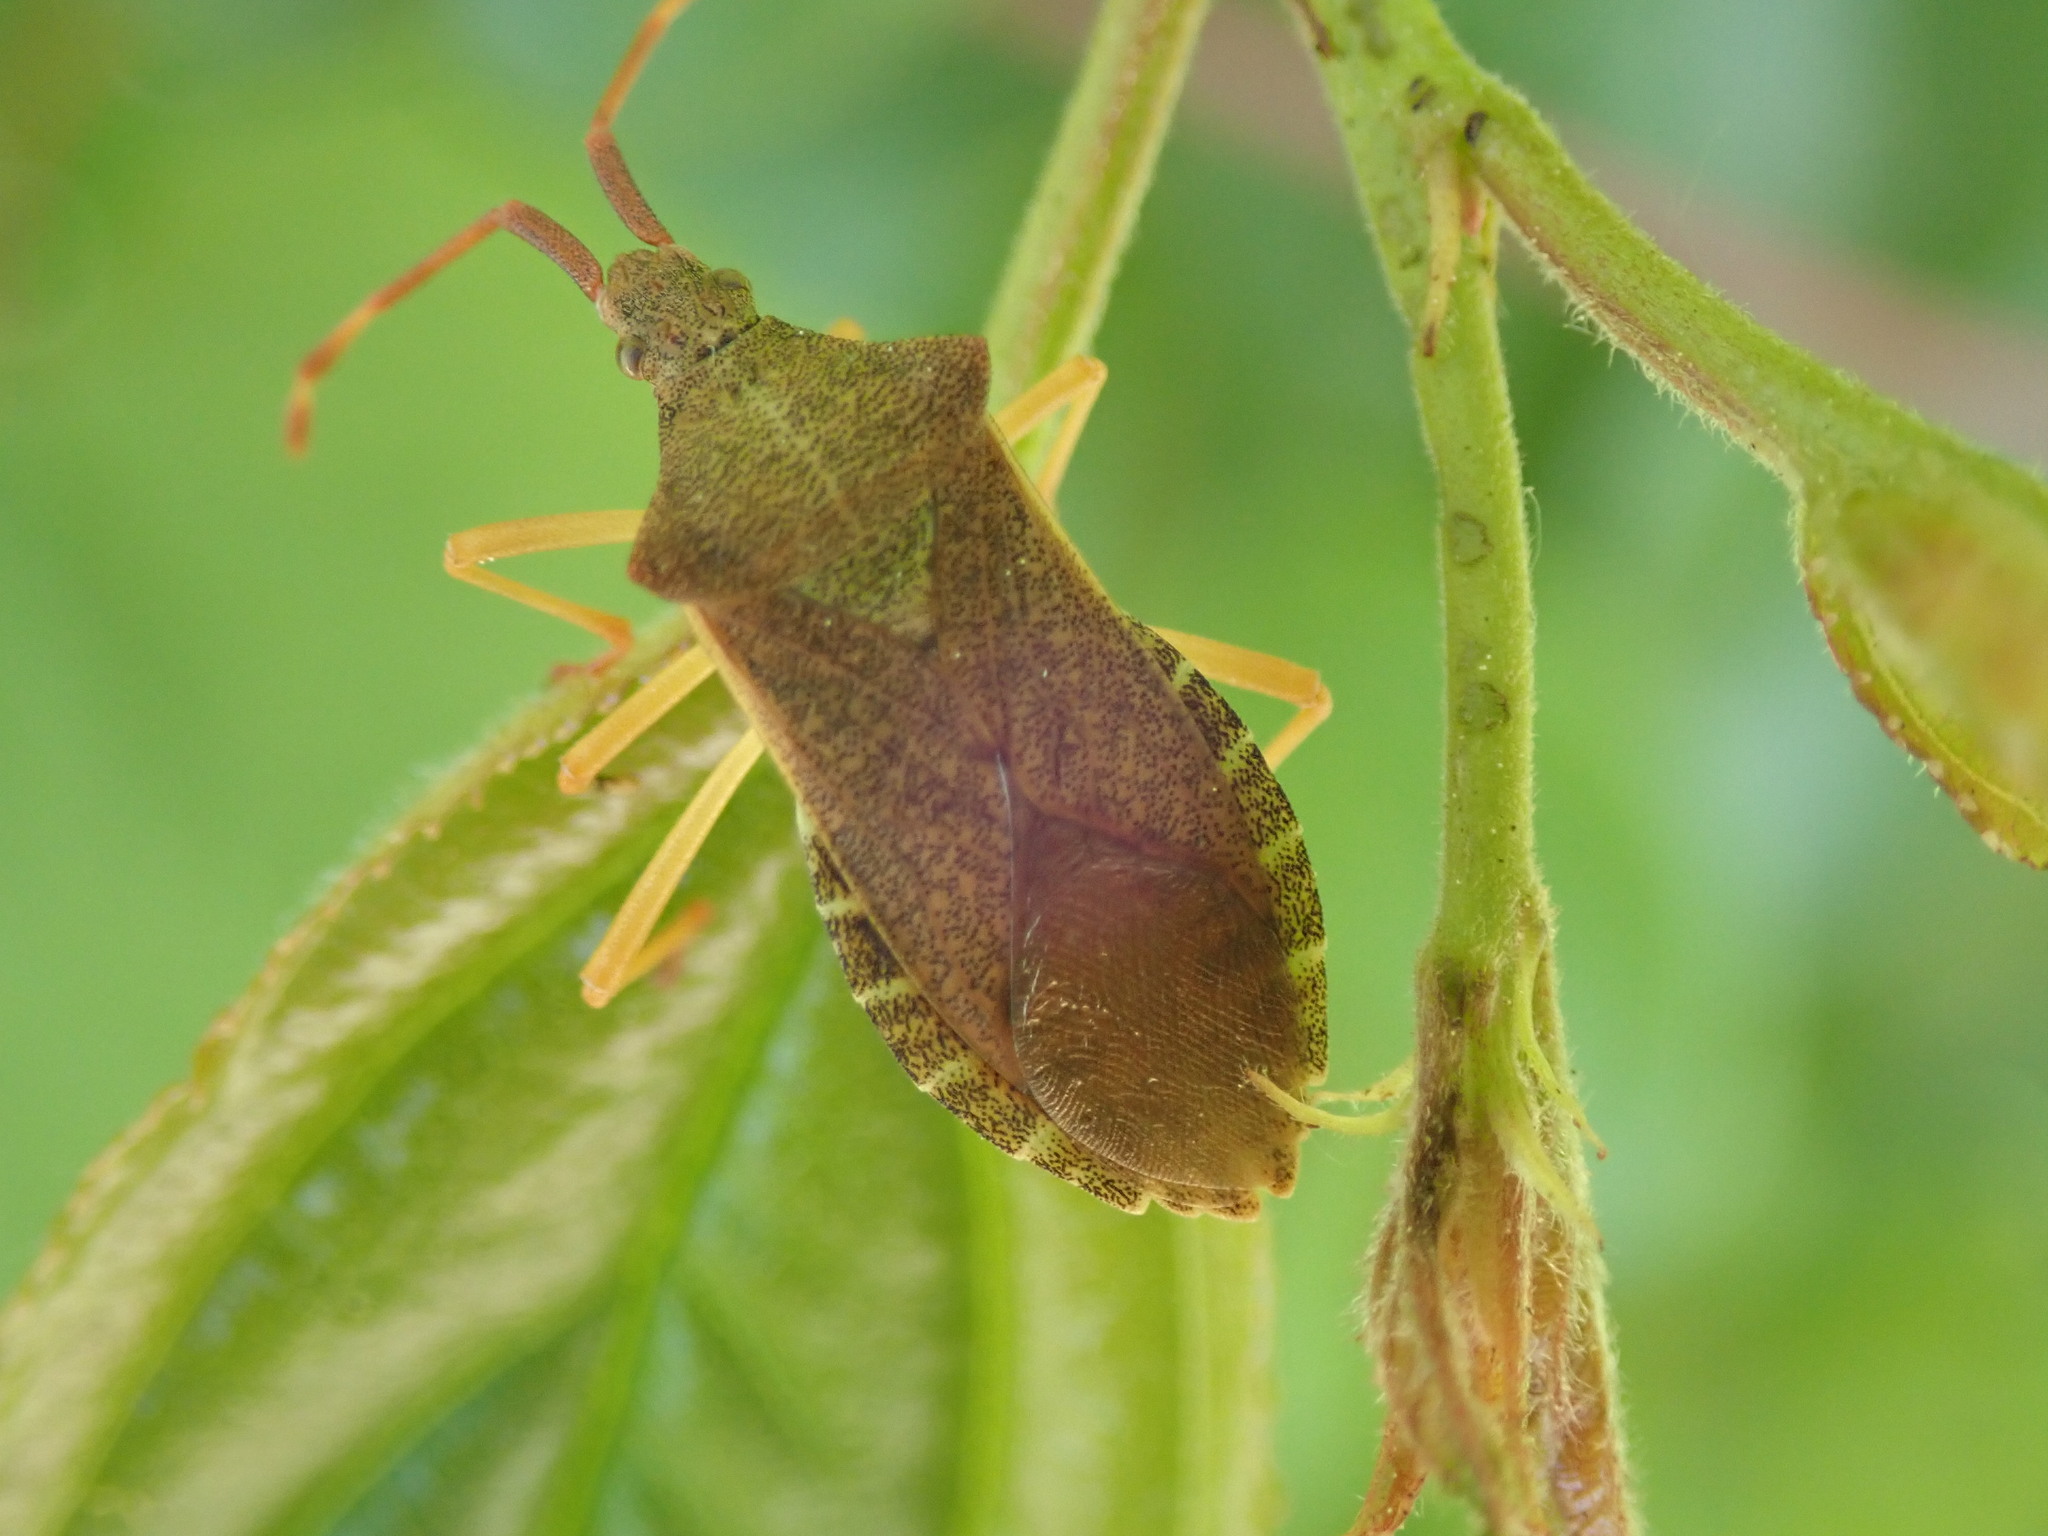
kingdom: Animalia
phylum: Arthropoda
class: Insecta
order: Hemiptera
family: Coreidae
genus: Gonocerus
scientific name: Gonocerus acuteangulatus
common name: Box bug
